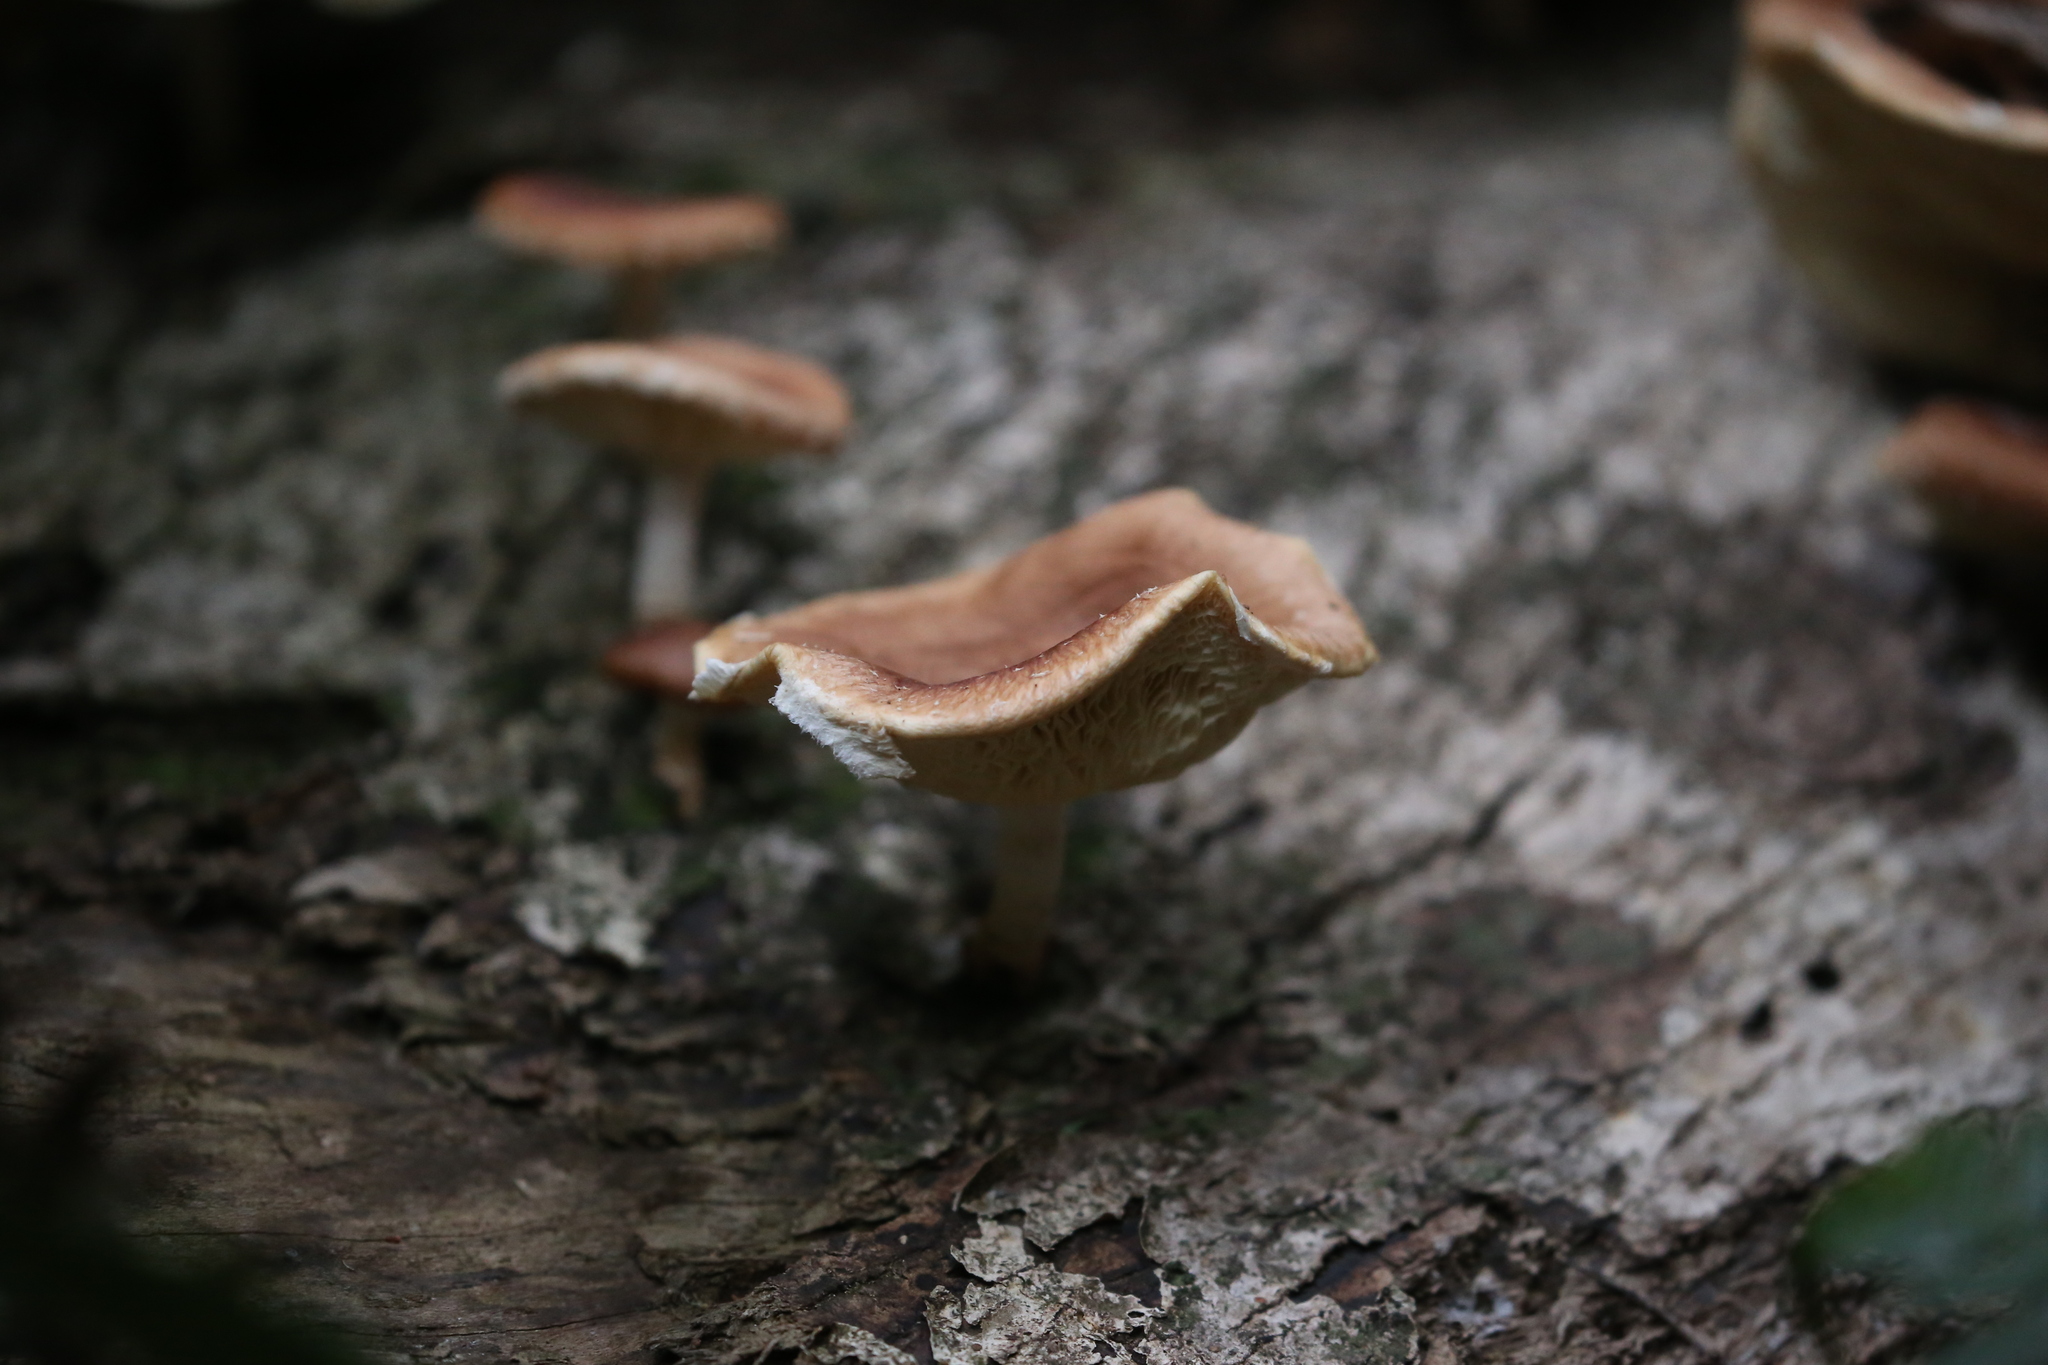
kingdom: Fungi
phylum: Basidiomycota
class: Agaricomycetes
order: Agaricales
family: Omphalotaceae
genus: Lentinula
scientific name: Lentinula lateritia
